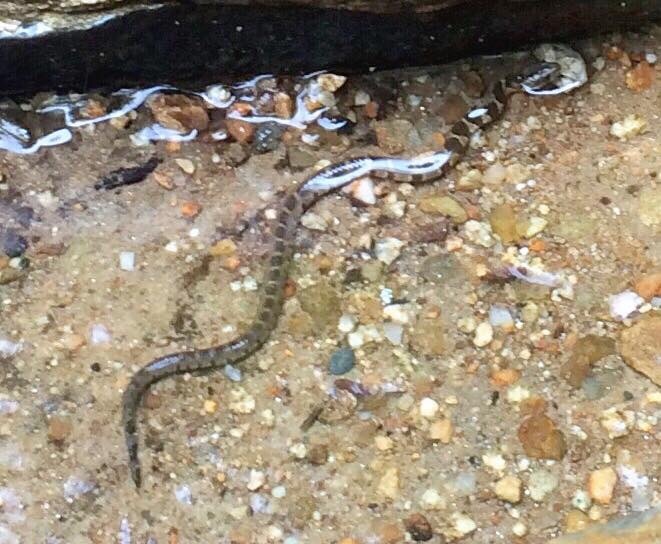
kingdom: Animalia
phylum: Chordata
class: Squamata
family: Colubridae
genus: Nerodia
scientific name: Nerodia sipedon
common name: Northern water snake
